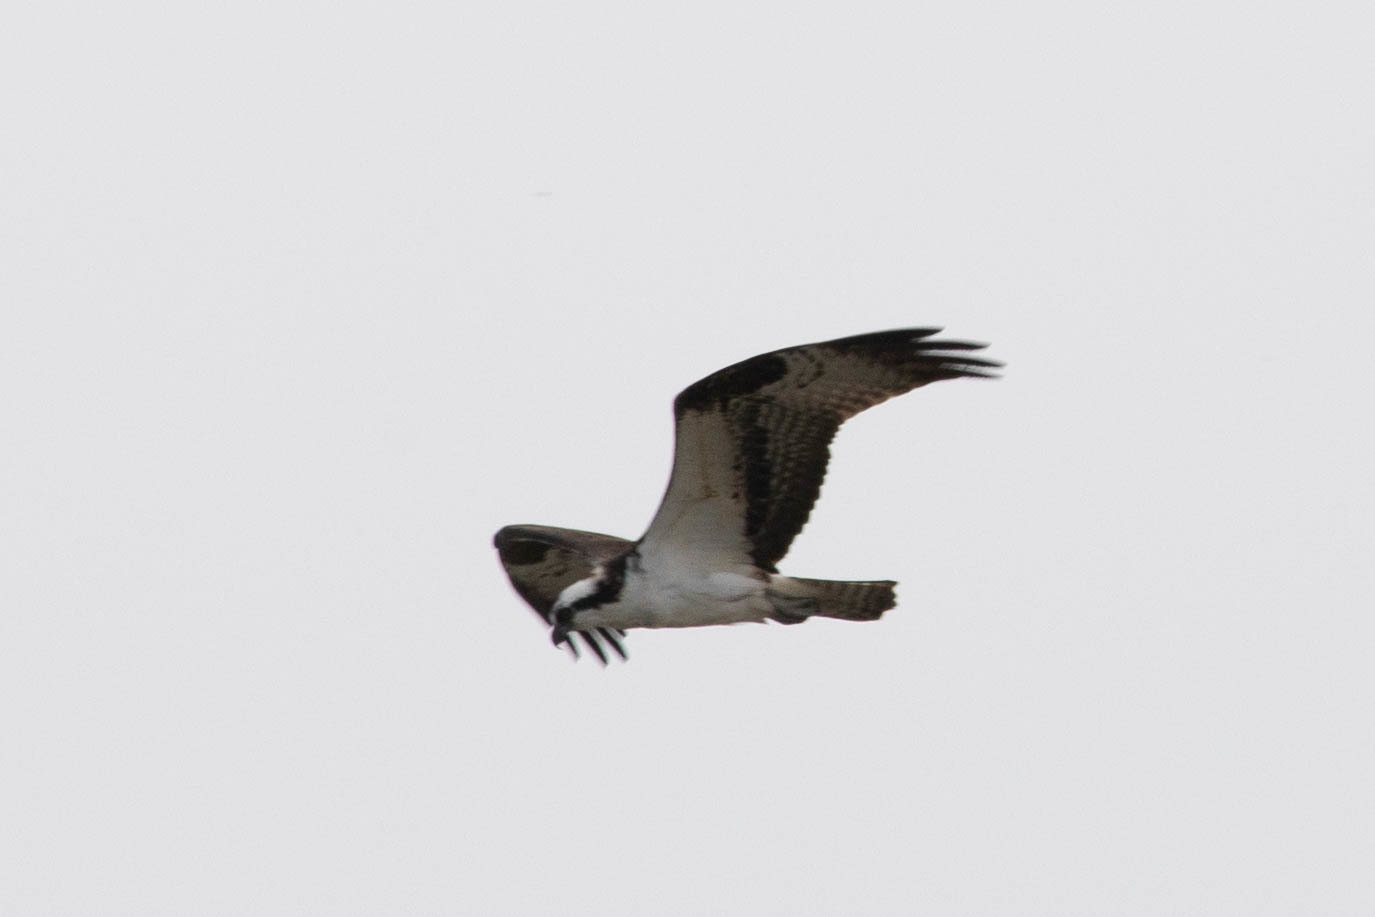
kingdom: Animalia
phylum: Chordata
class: Aves
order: Accipitriformes
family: Pandionidae
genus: Pandion
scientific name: Pandion haliaetus
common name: Osprey
